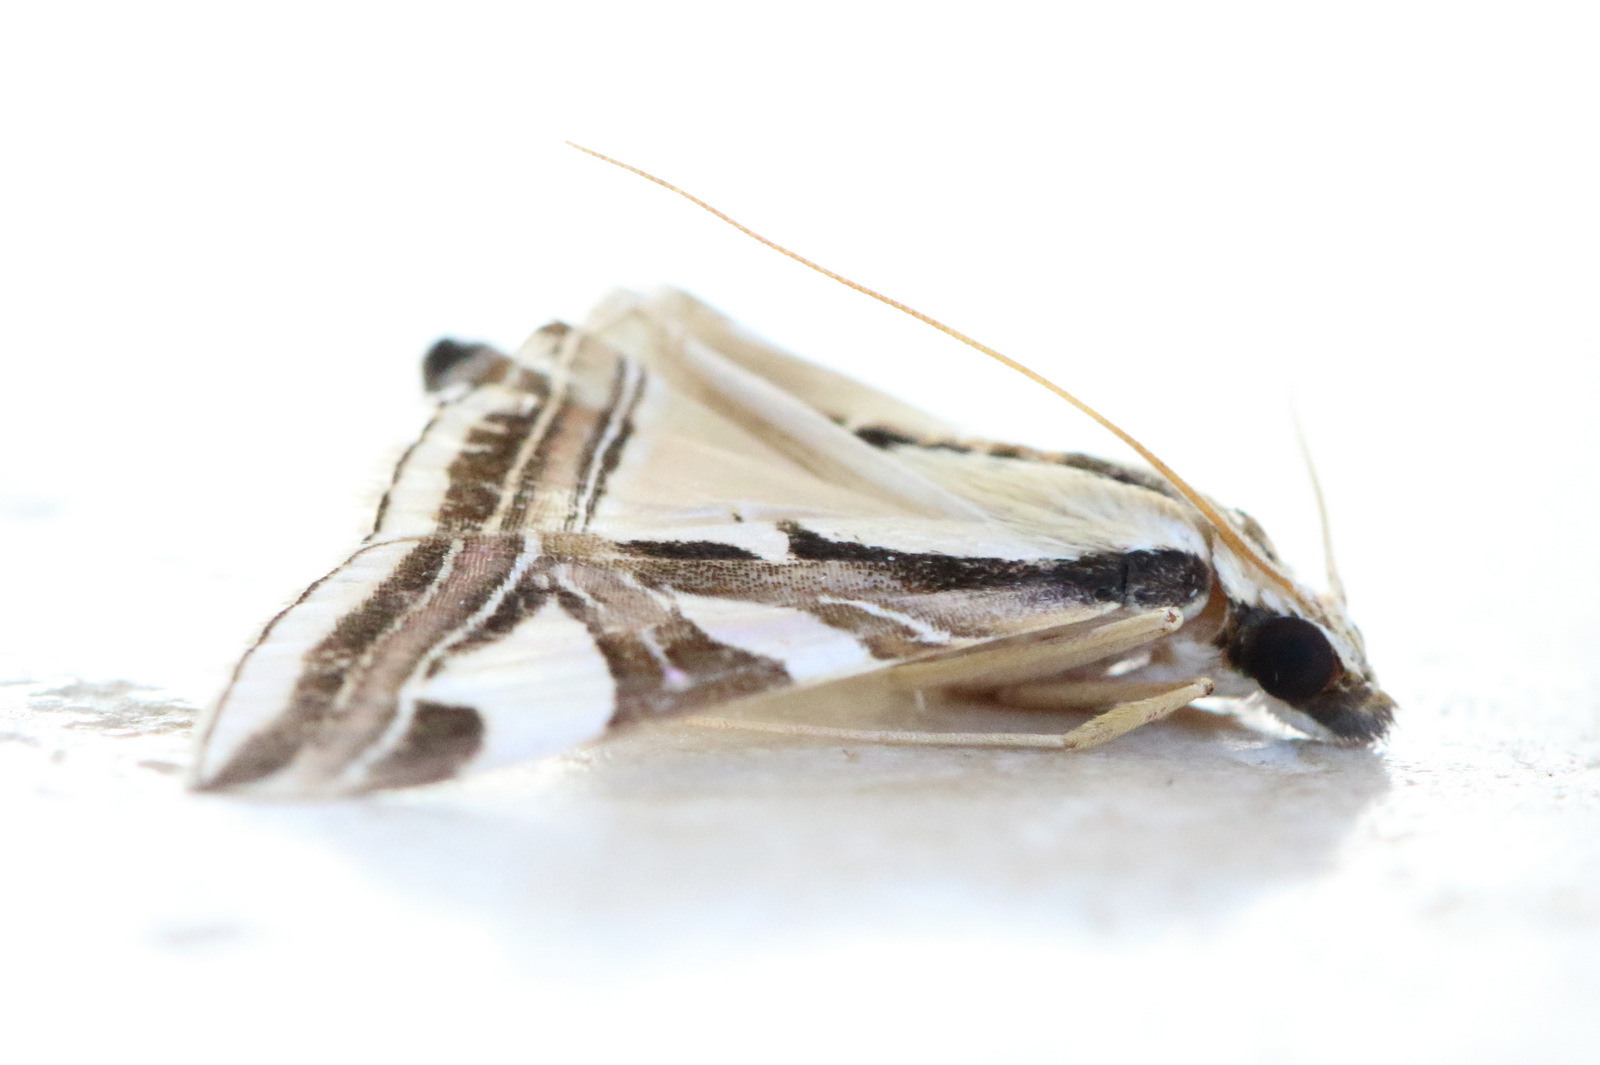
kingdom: Animalia
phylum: Arthropoda
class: Insecta
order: Lepidoptera
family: Crambidae
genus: Agrioglypta
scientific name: Agrioglypta excelsalis
